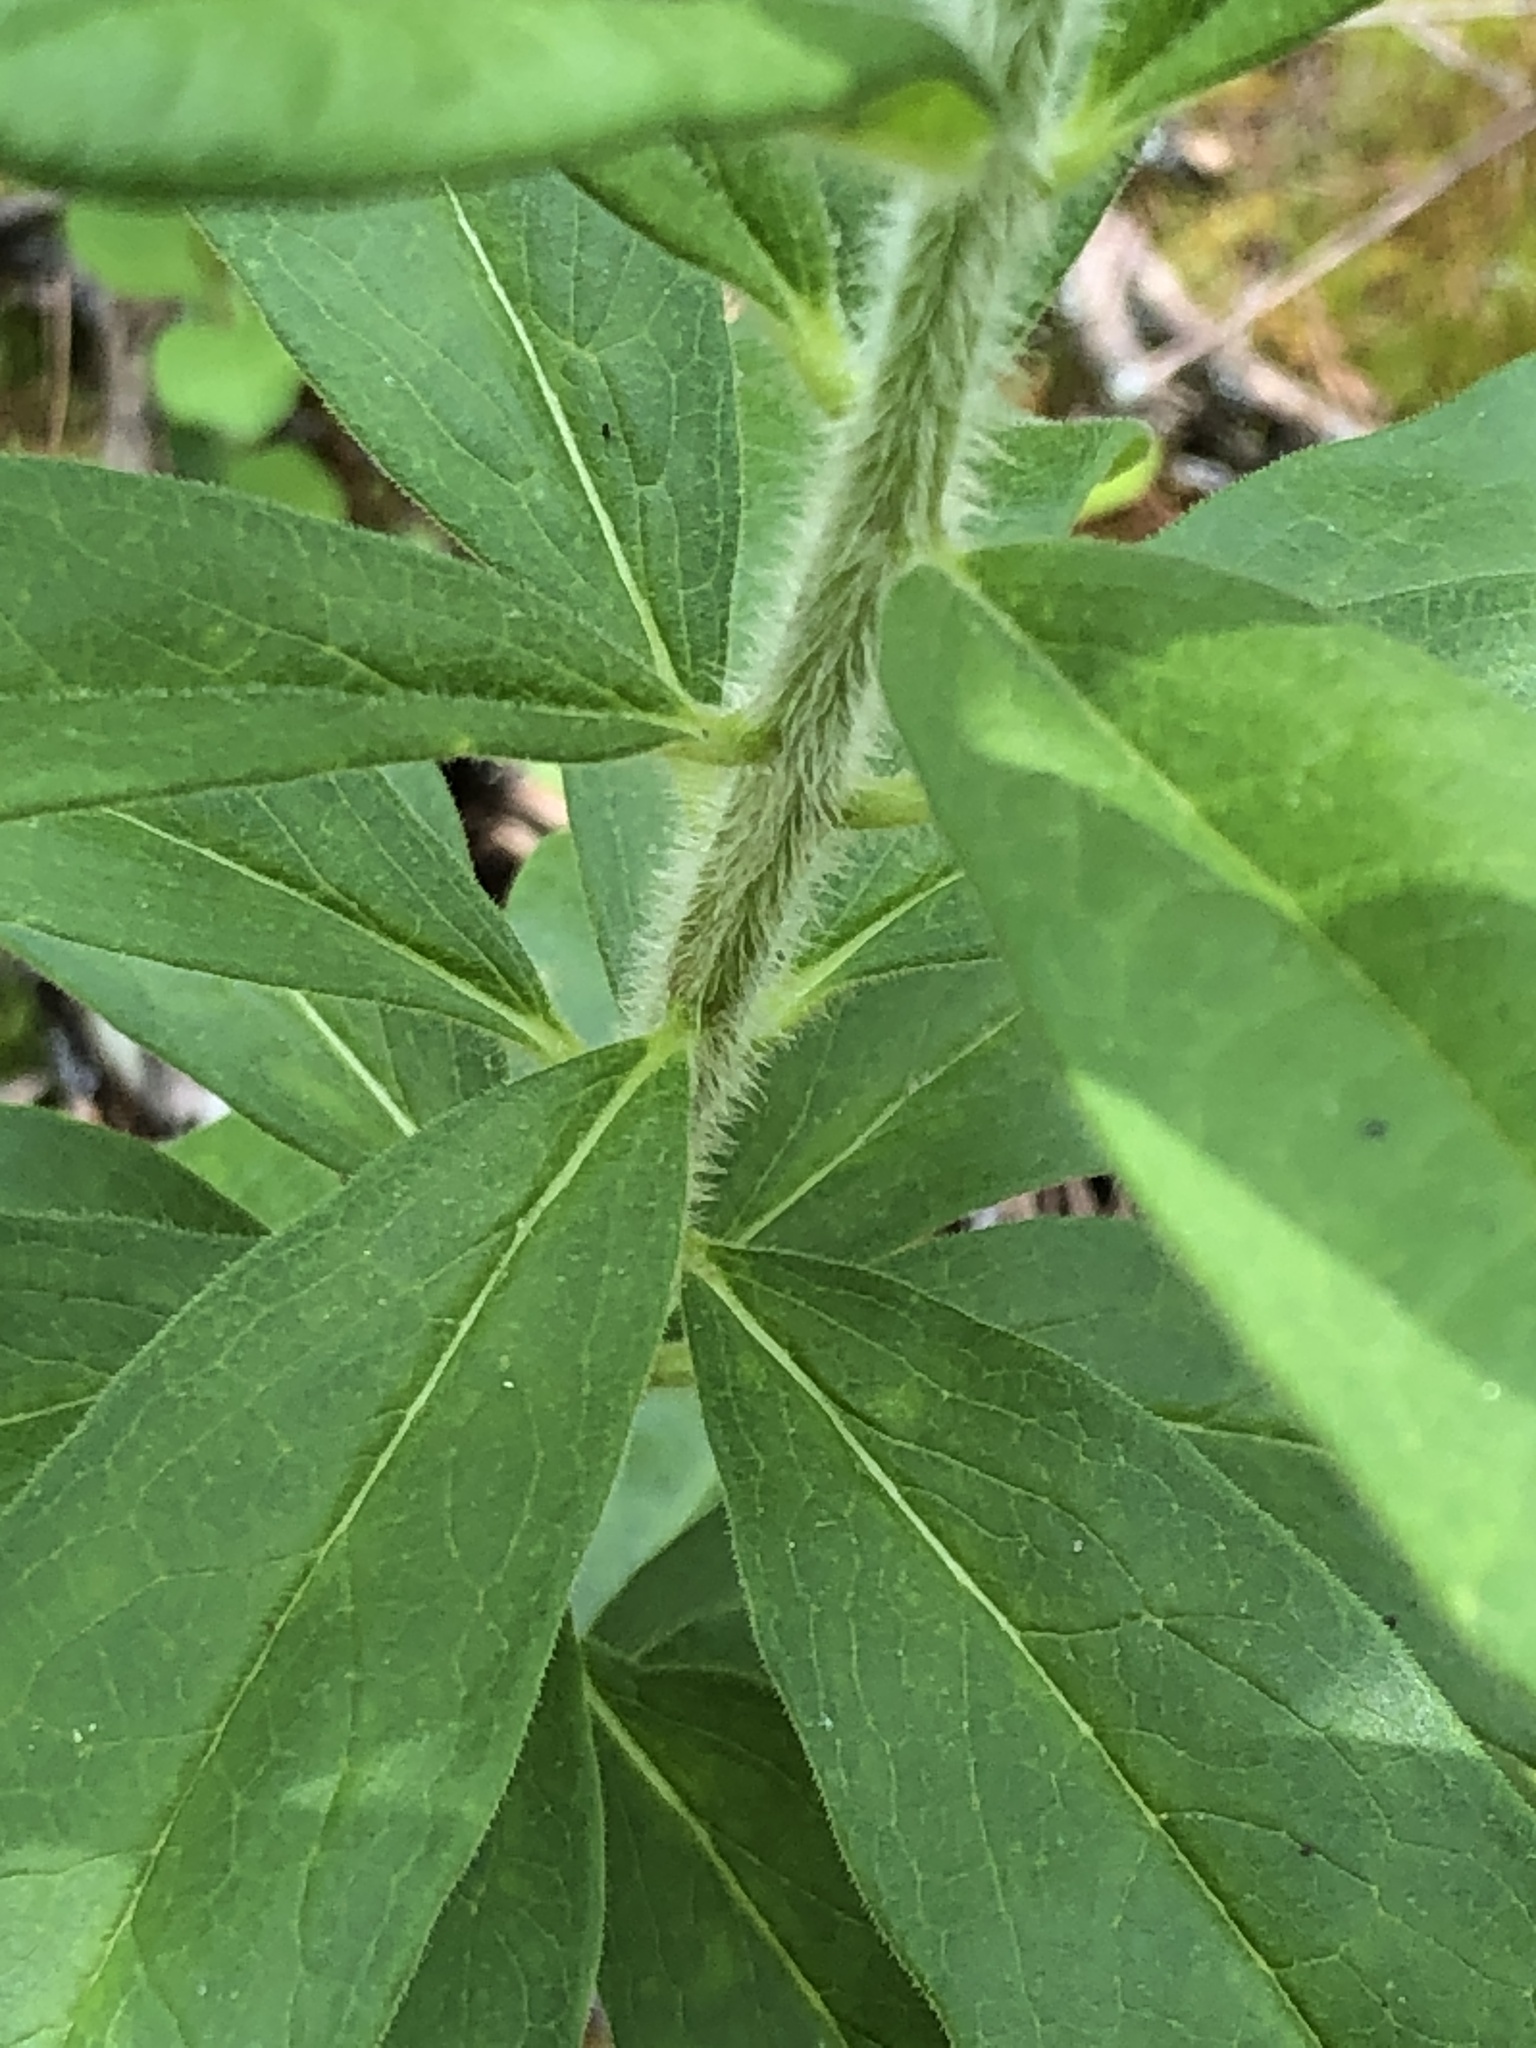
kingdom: Plantae
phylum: Tracheophyta
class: Magnoliopsida
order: Gentianales
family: Apocynaceae
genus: Asclepias
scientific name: Asclepias tuberosa
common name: Butterfly milkweed
